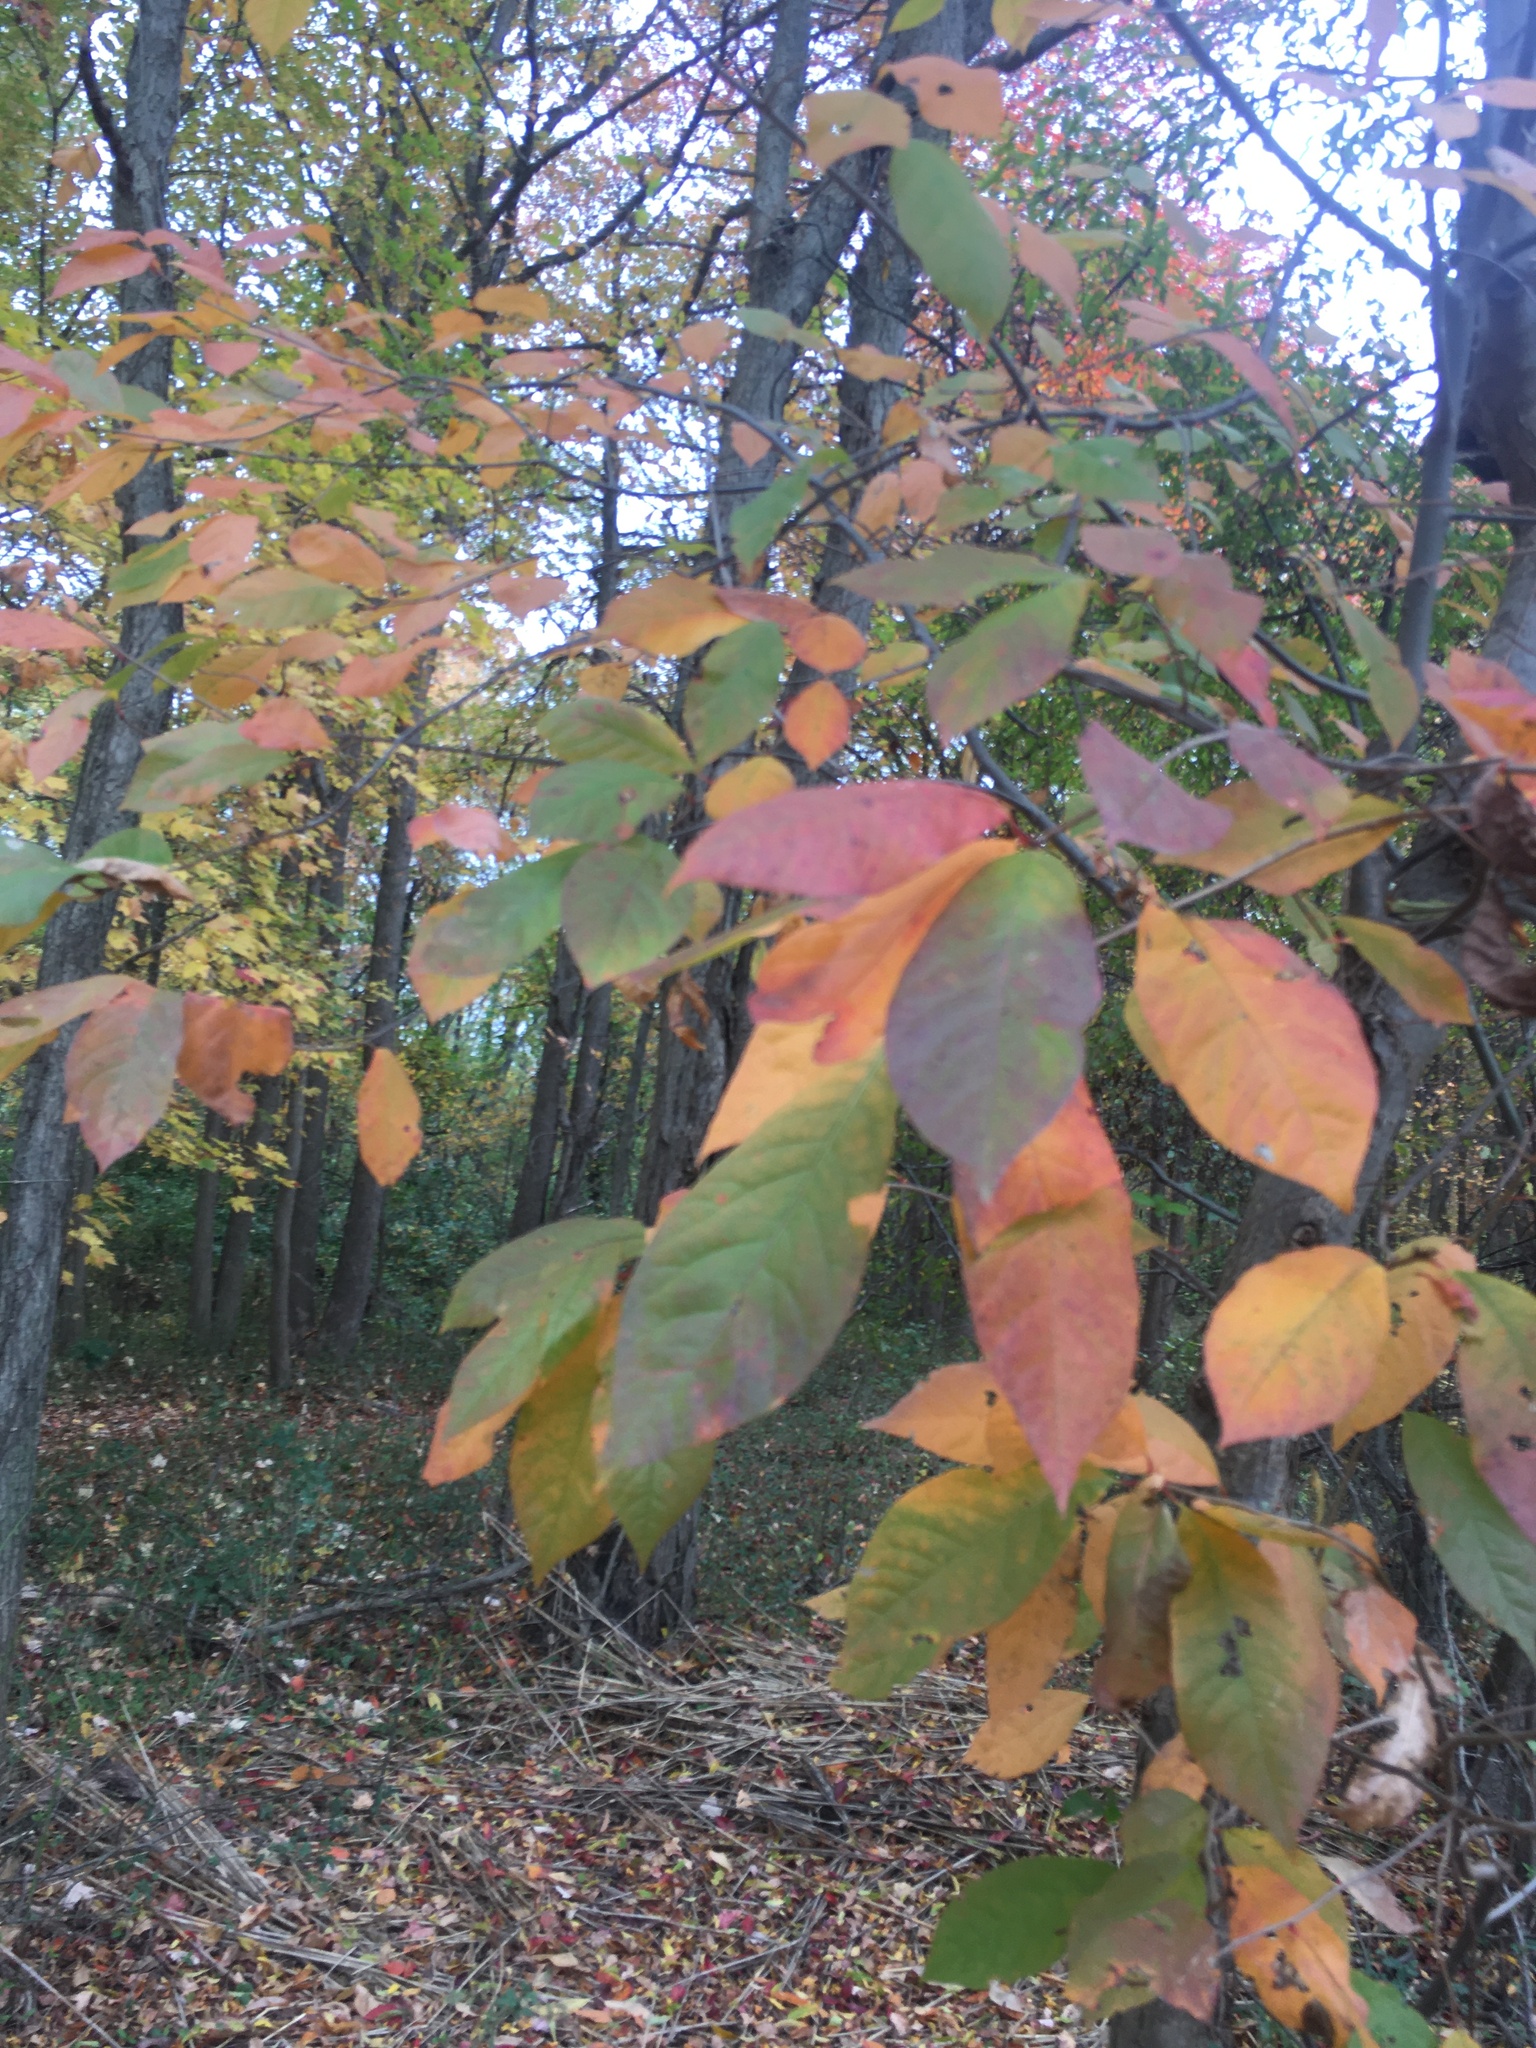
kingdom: Plantae
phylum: Tracheophyta
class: Magnoliopsida
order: Cornales
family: Nyssaceae
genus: Nyssa
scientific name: Nyssa sylvatica
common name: Black tupelo
